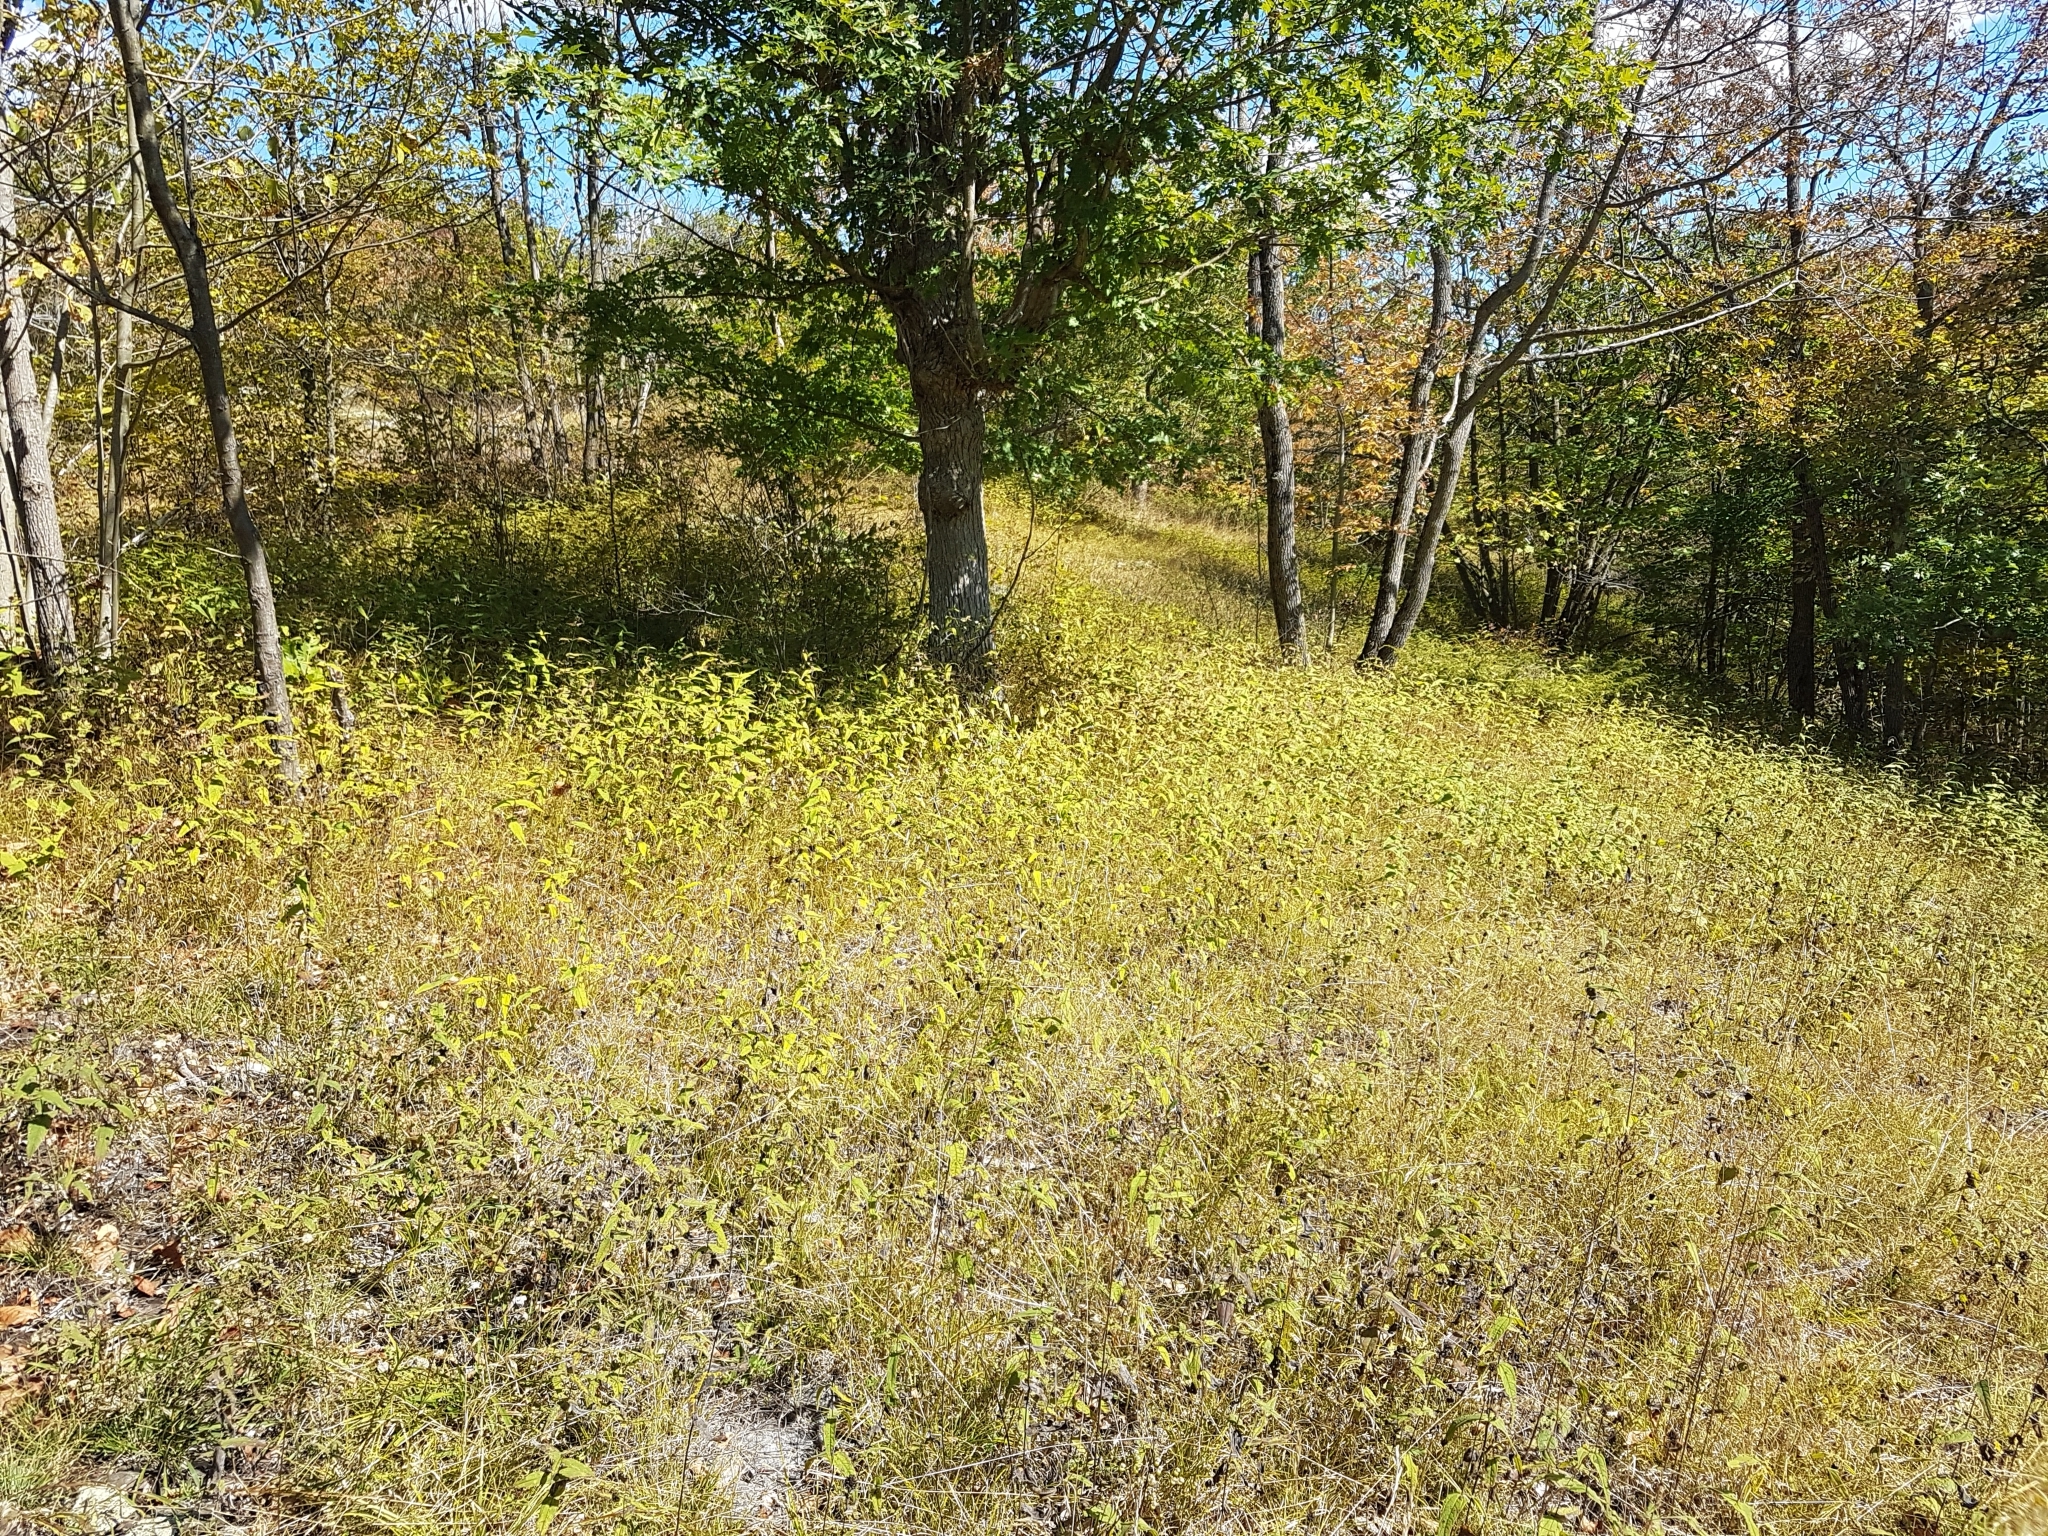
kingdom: Plantae
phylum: Tracheophyta
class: Magnoliopsida
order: Asterales
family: Asteraceae
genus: Helianthus
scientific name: Helianthus divaricatus
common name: Divergent sunflower
